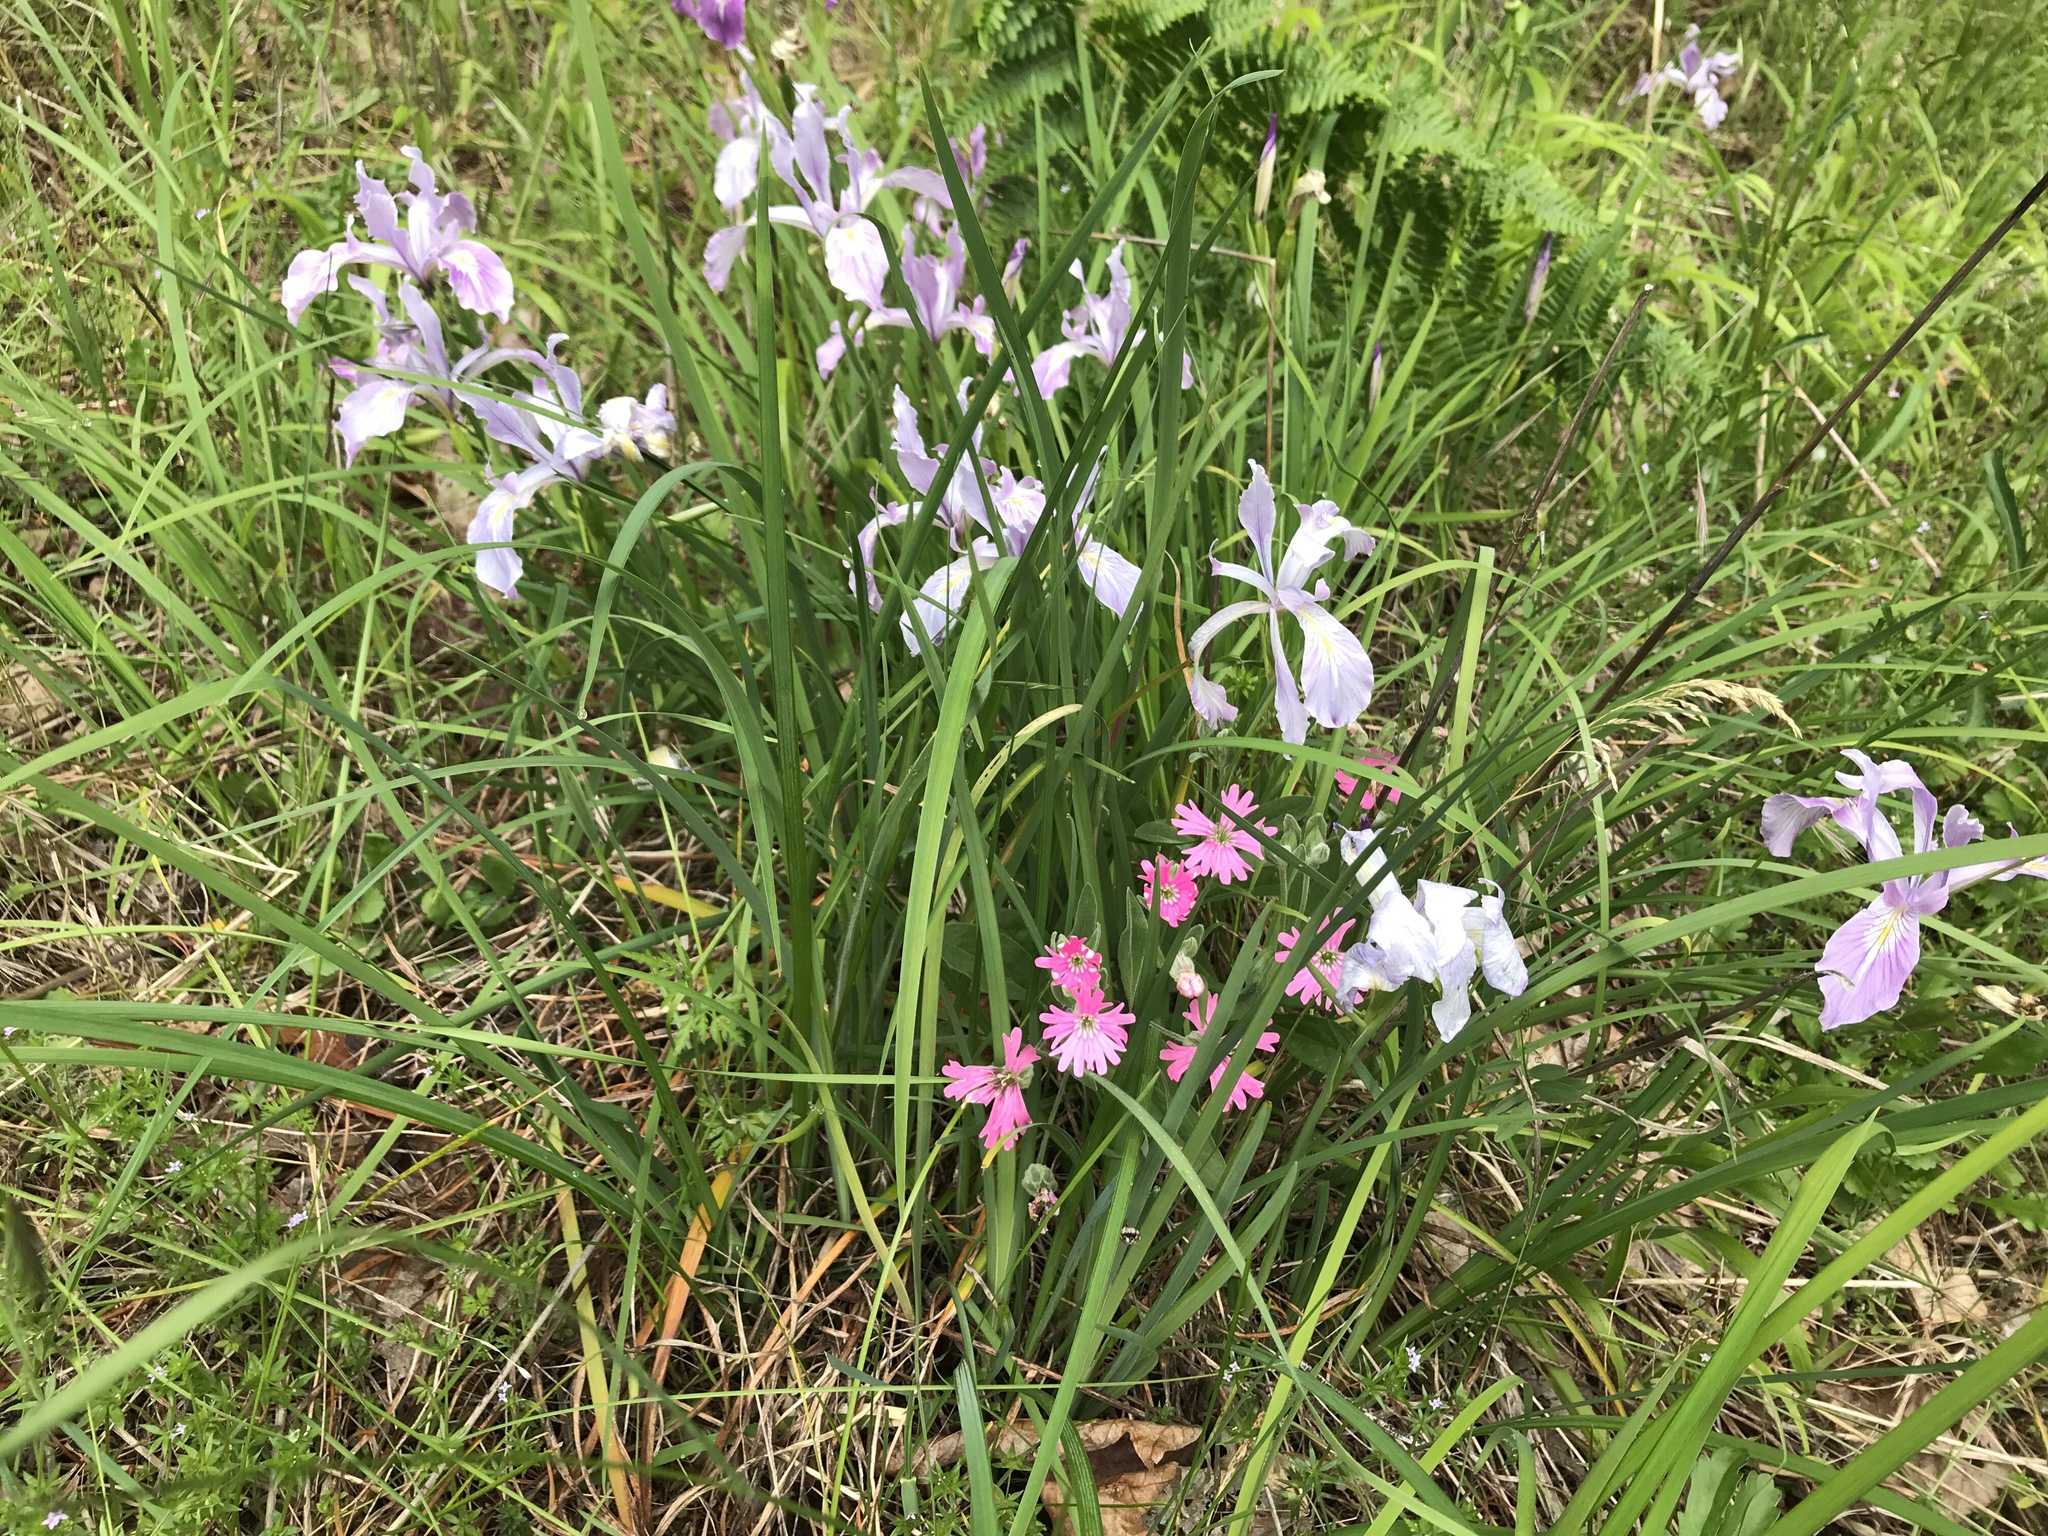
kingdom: Plantae
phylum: Tracheophyta
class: Magnoliopsida
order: Caryophyllales
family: Caryophyllaceae
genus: Silene
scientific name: Silene hookeri
